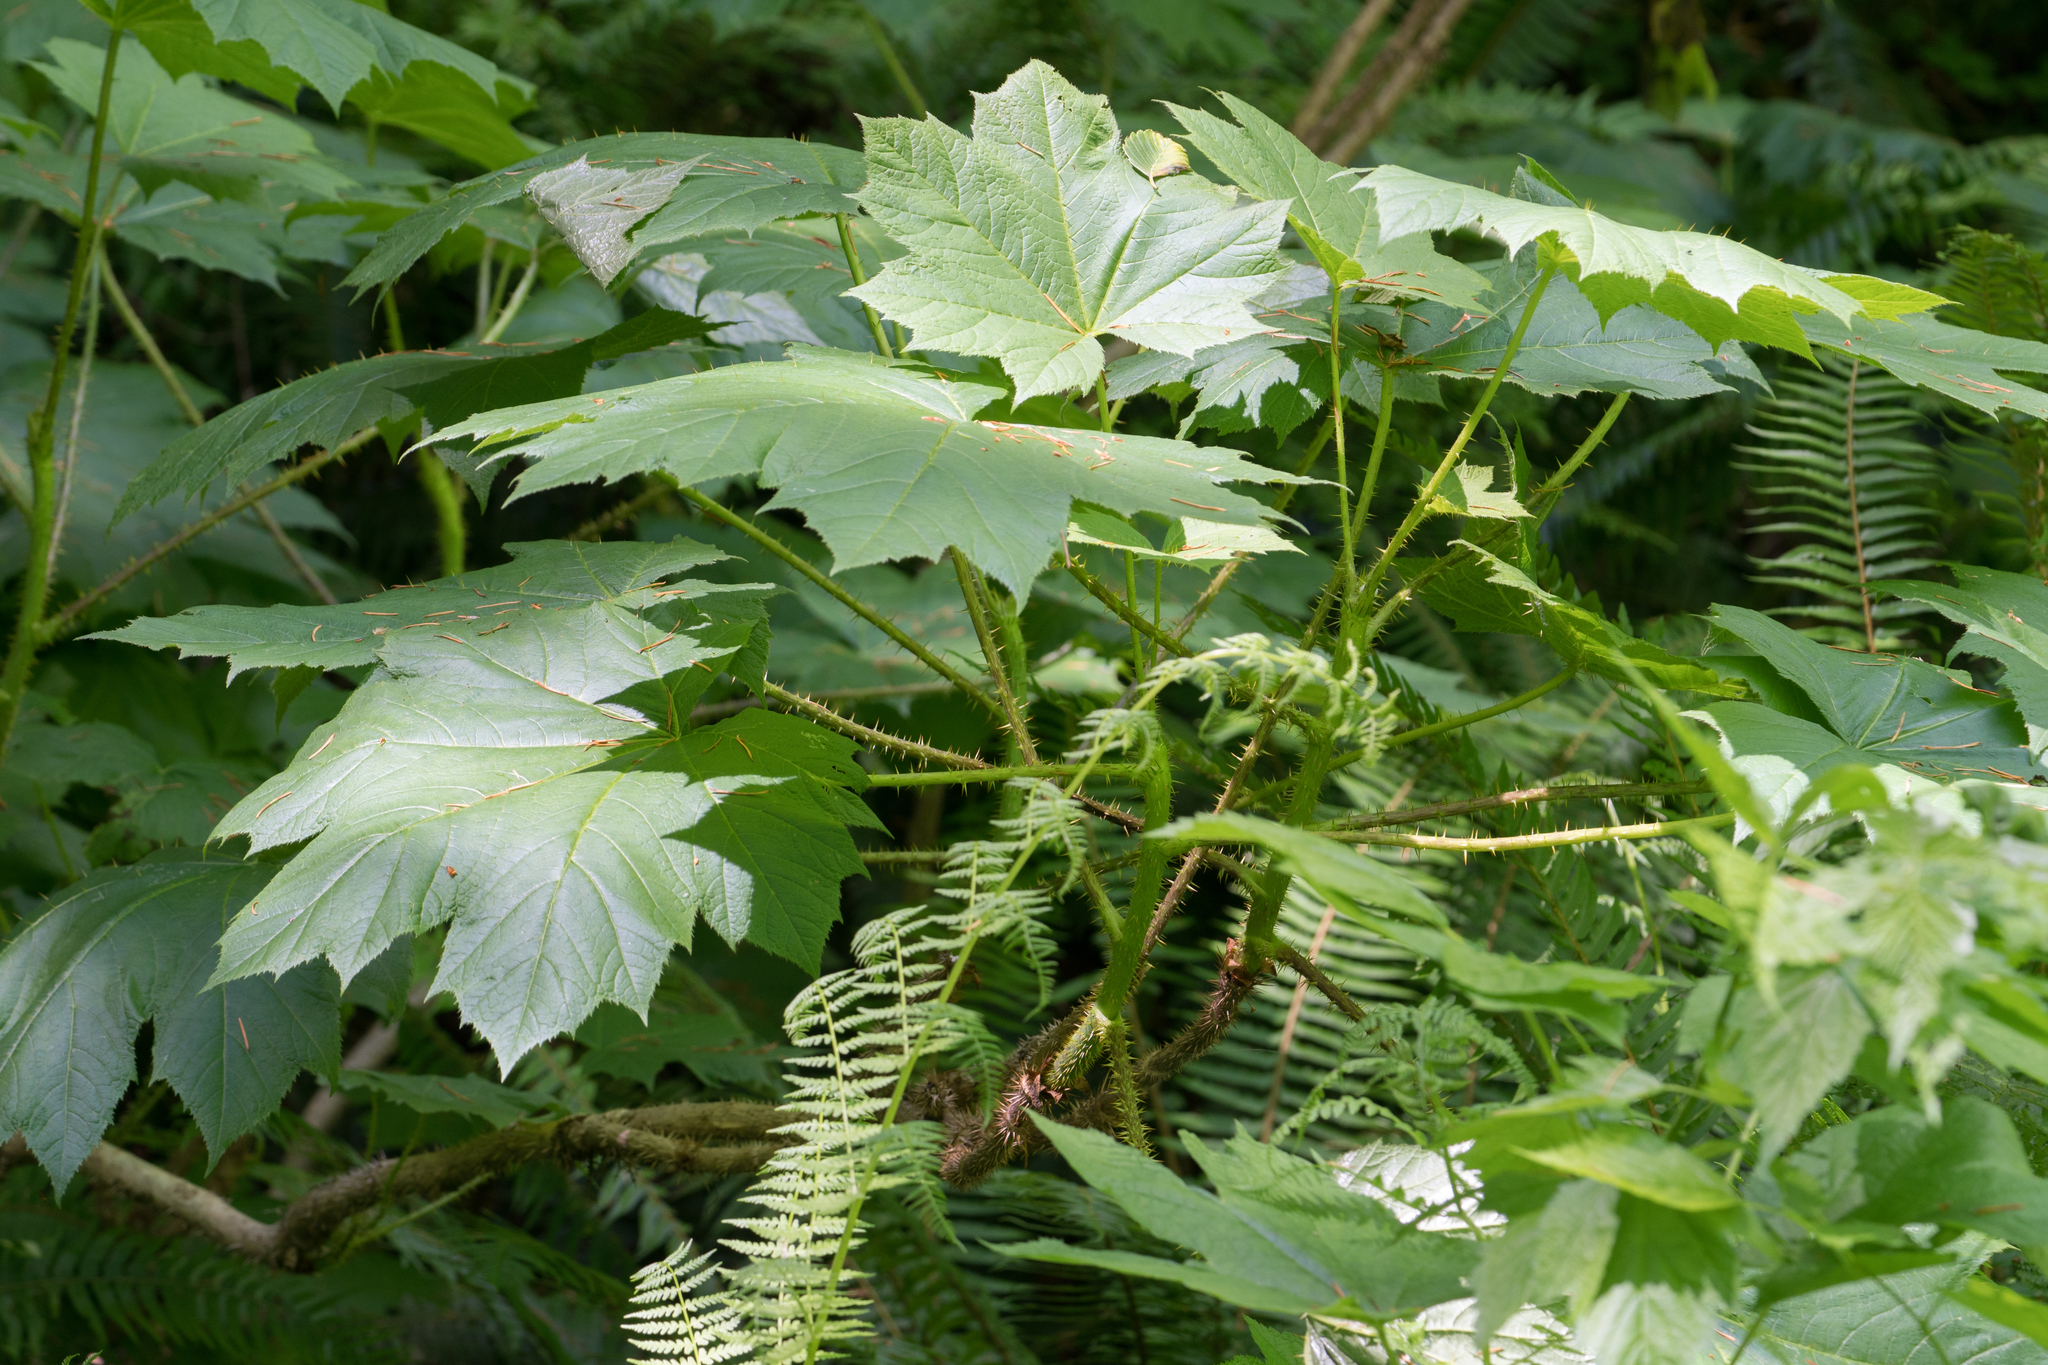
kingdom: Plantae
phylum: Tracheophyta
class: Magnoliopsida
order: Apiales
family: Araliaceae
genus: Oplopanax
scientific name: Oplopanax horridus
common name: Devil's walking-stick
